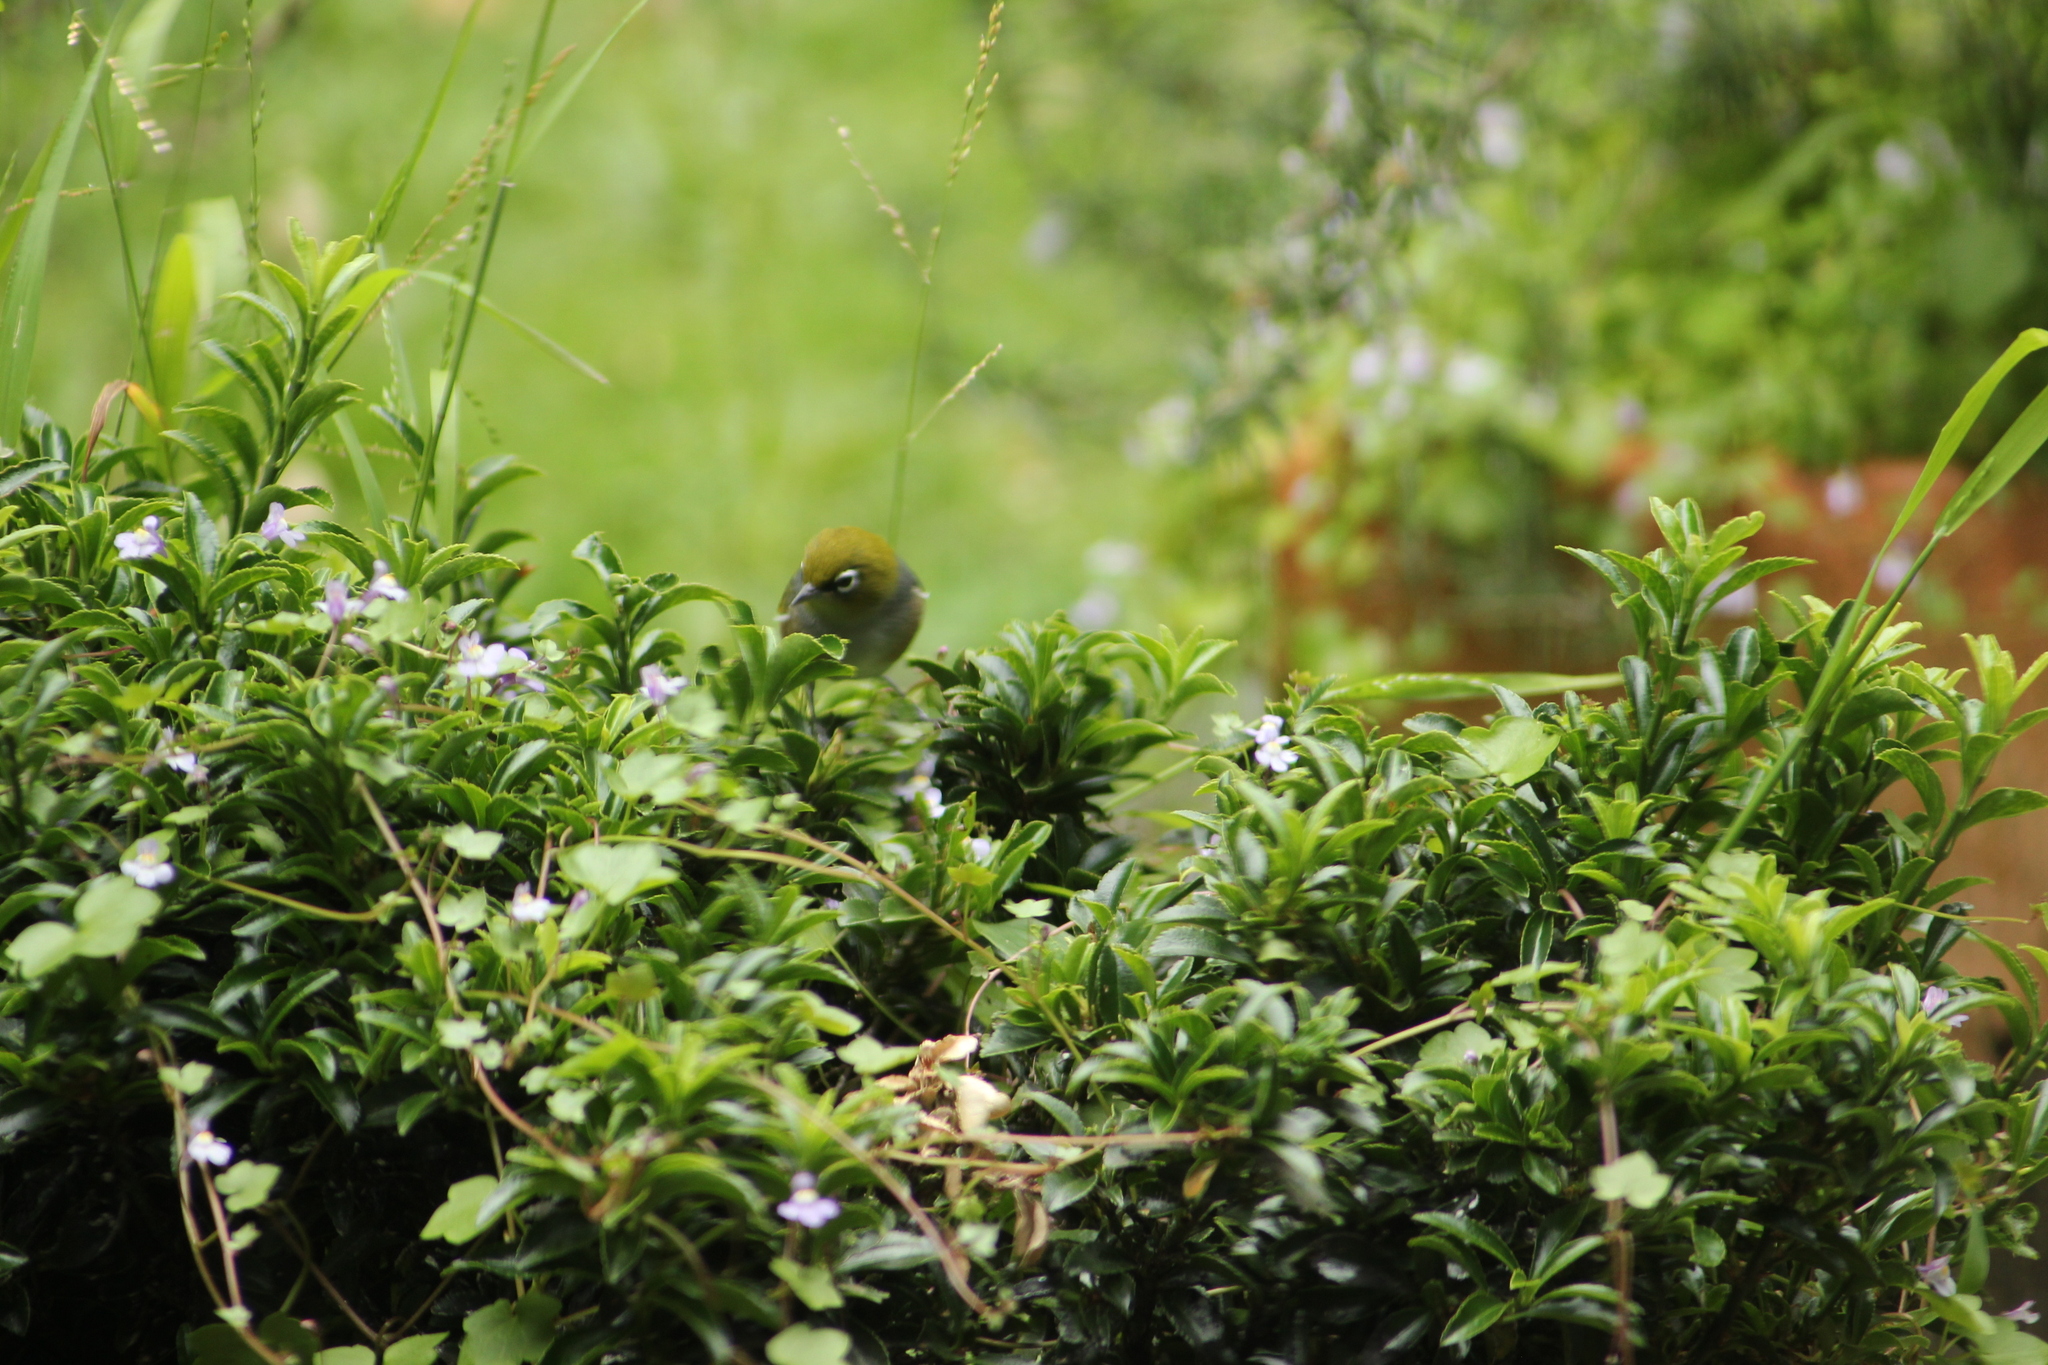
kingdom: Animalia
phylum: Chordata
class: Aves
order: Passeriformes
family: Zosteropidae
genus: Zosterops
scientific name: Zosterops lateralis
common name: Silvereye
